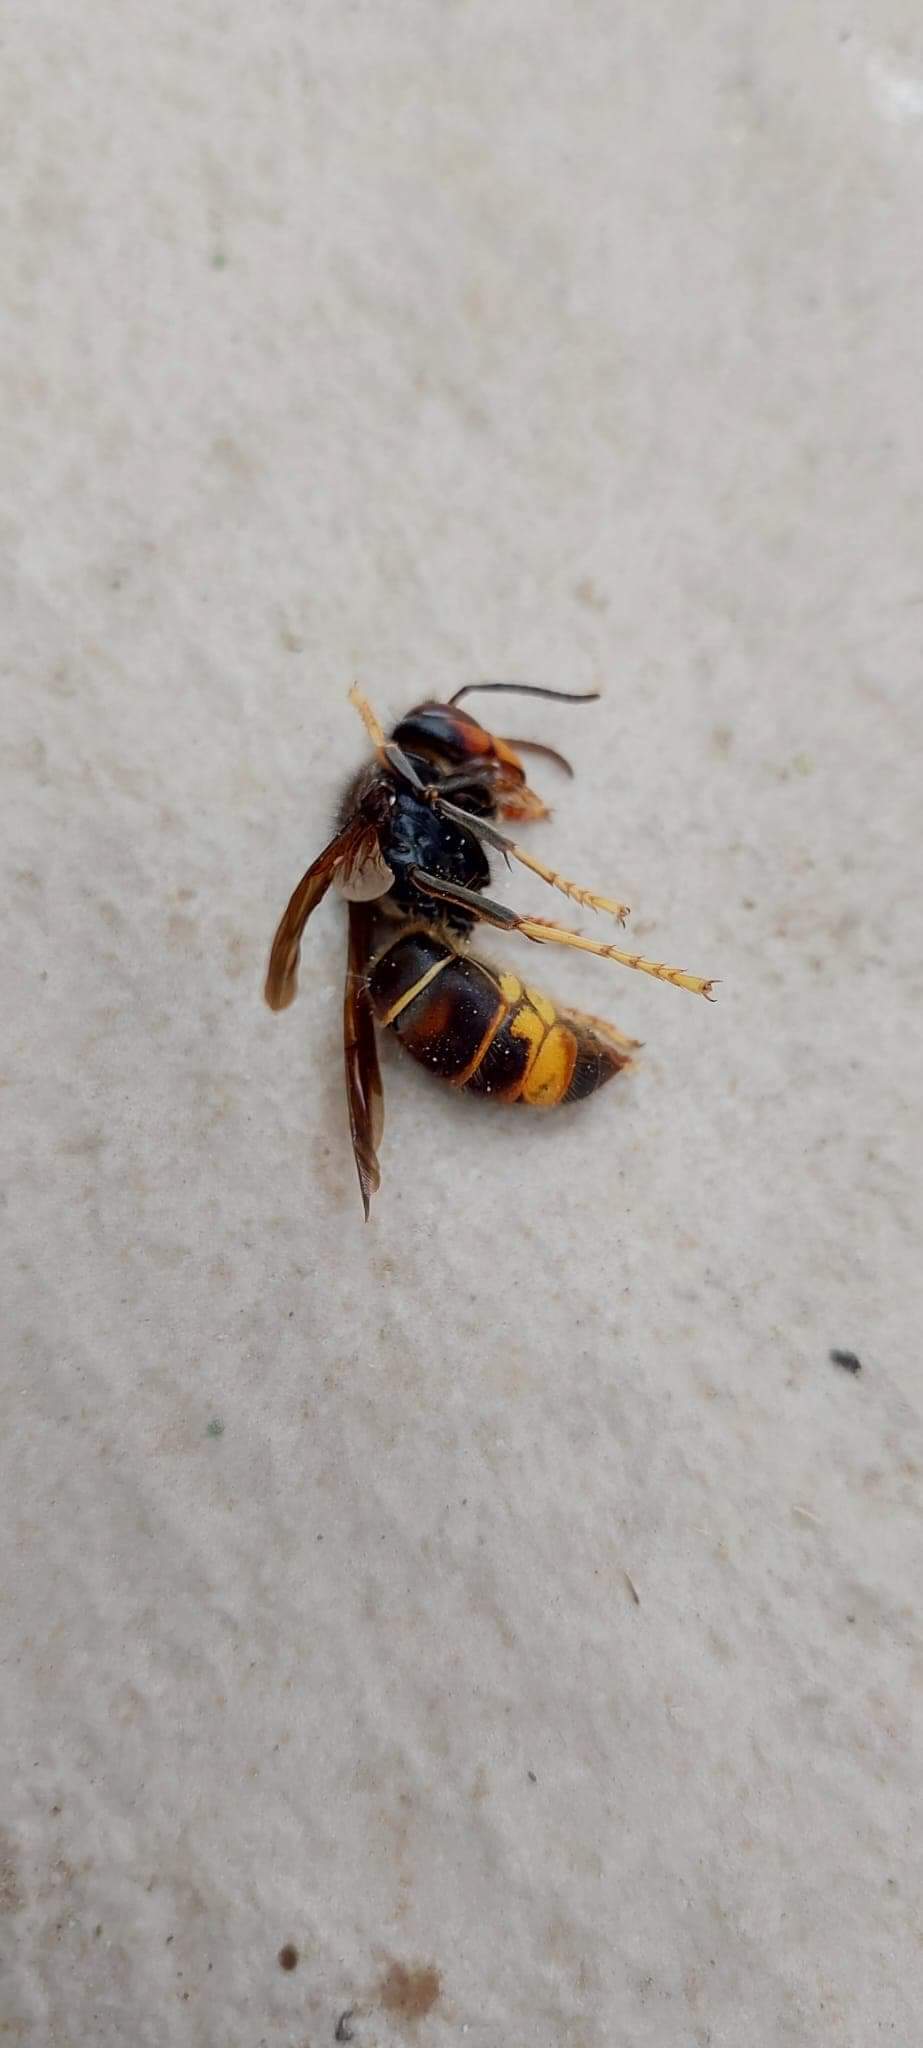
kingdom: Animalia
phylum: Arthropoda
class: Insecta
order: Hymenoptera
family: Vespidae
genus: Vespa
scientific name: Vespa velutina
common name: Asian hornet
